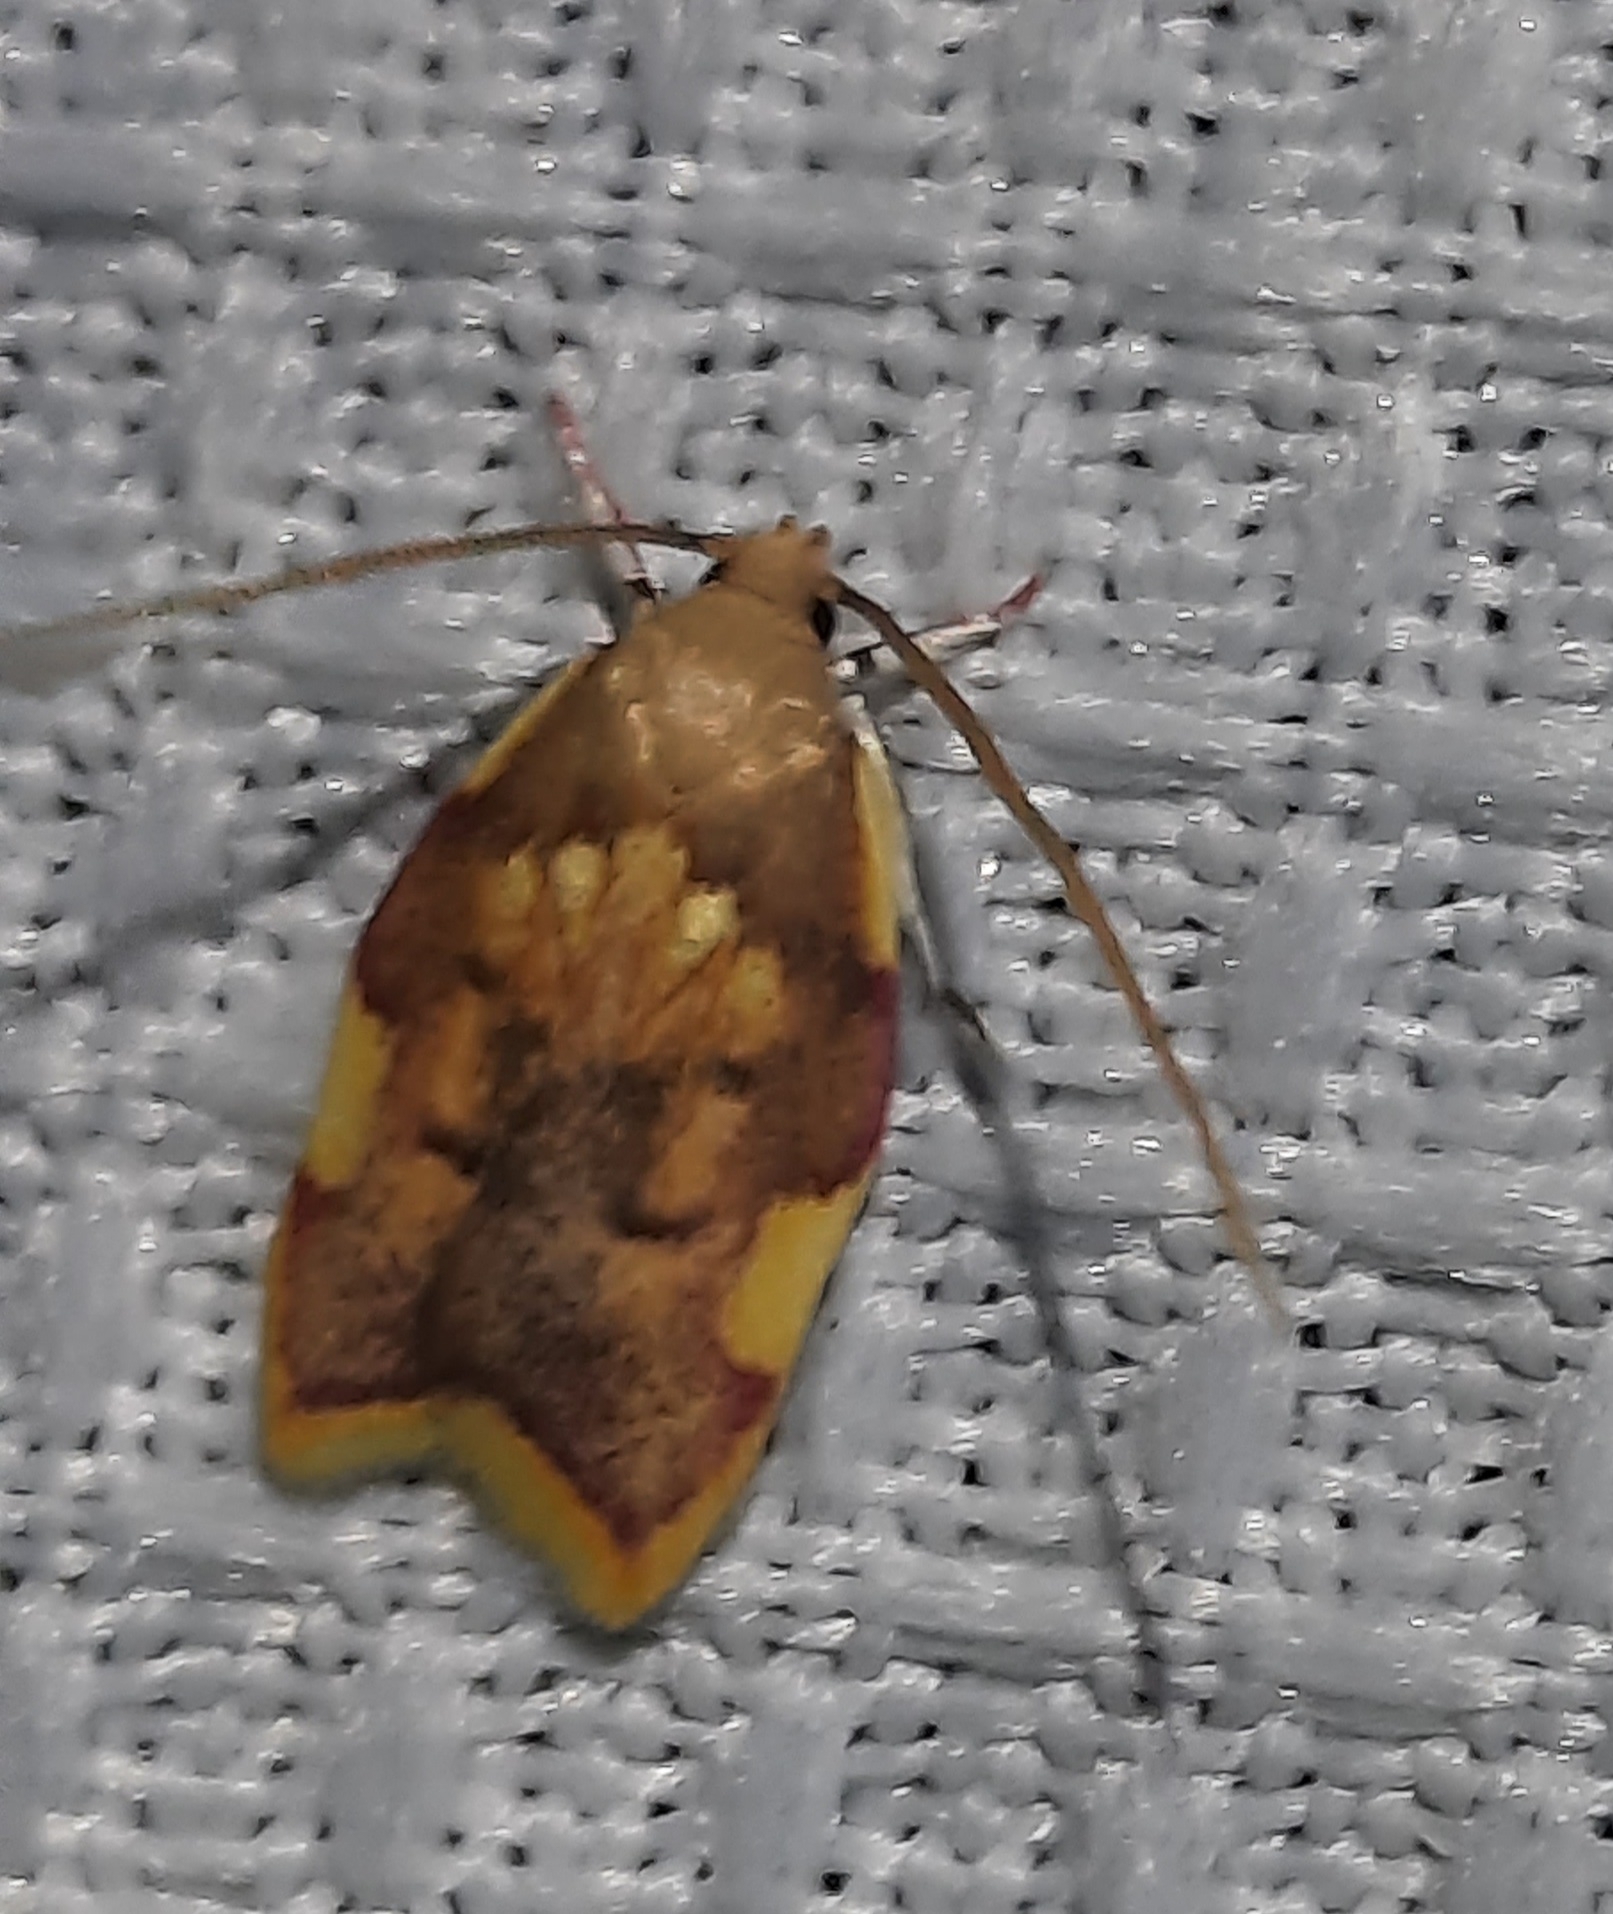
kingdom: Animalia
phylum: Arthropoda
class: Insecta
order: Lepidoptera
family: Peleopodidae
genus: Carcina
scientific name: Carcina quercana
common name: Moth
